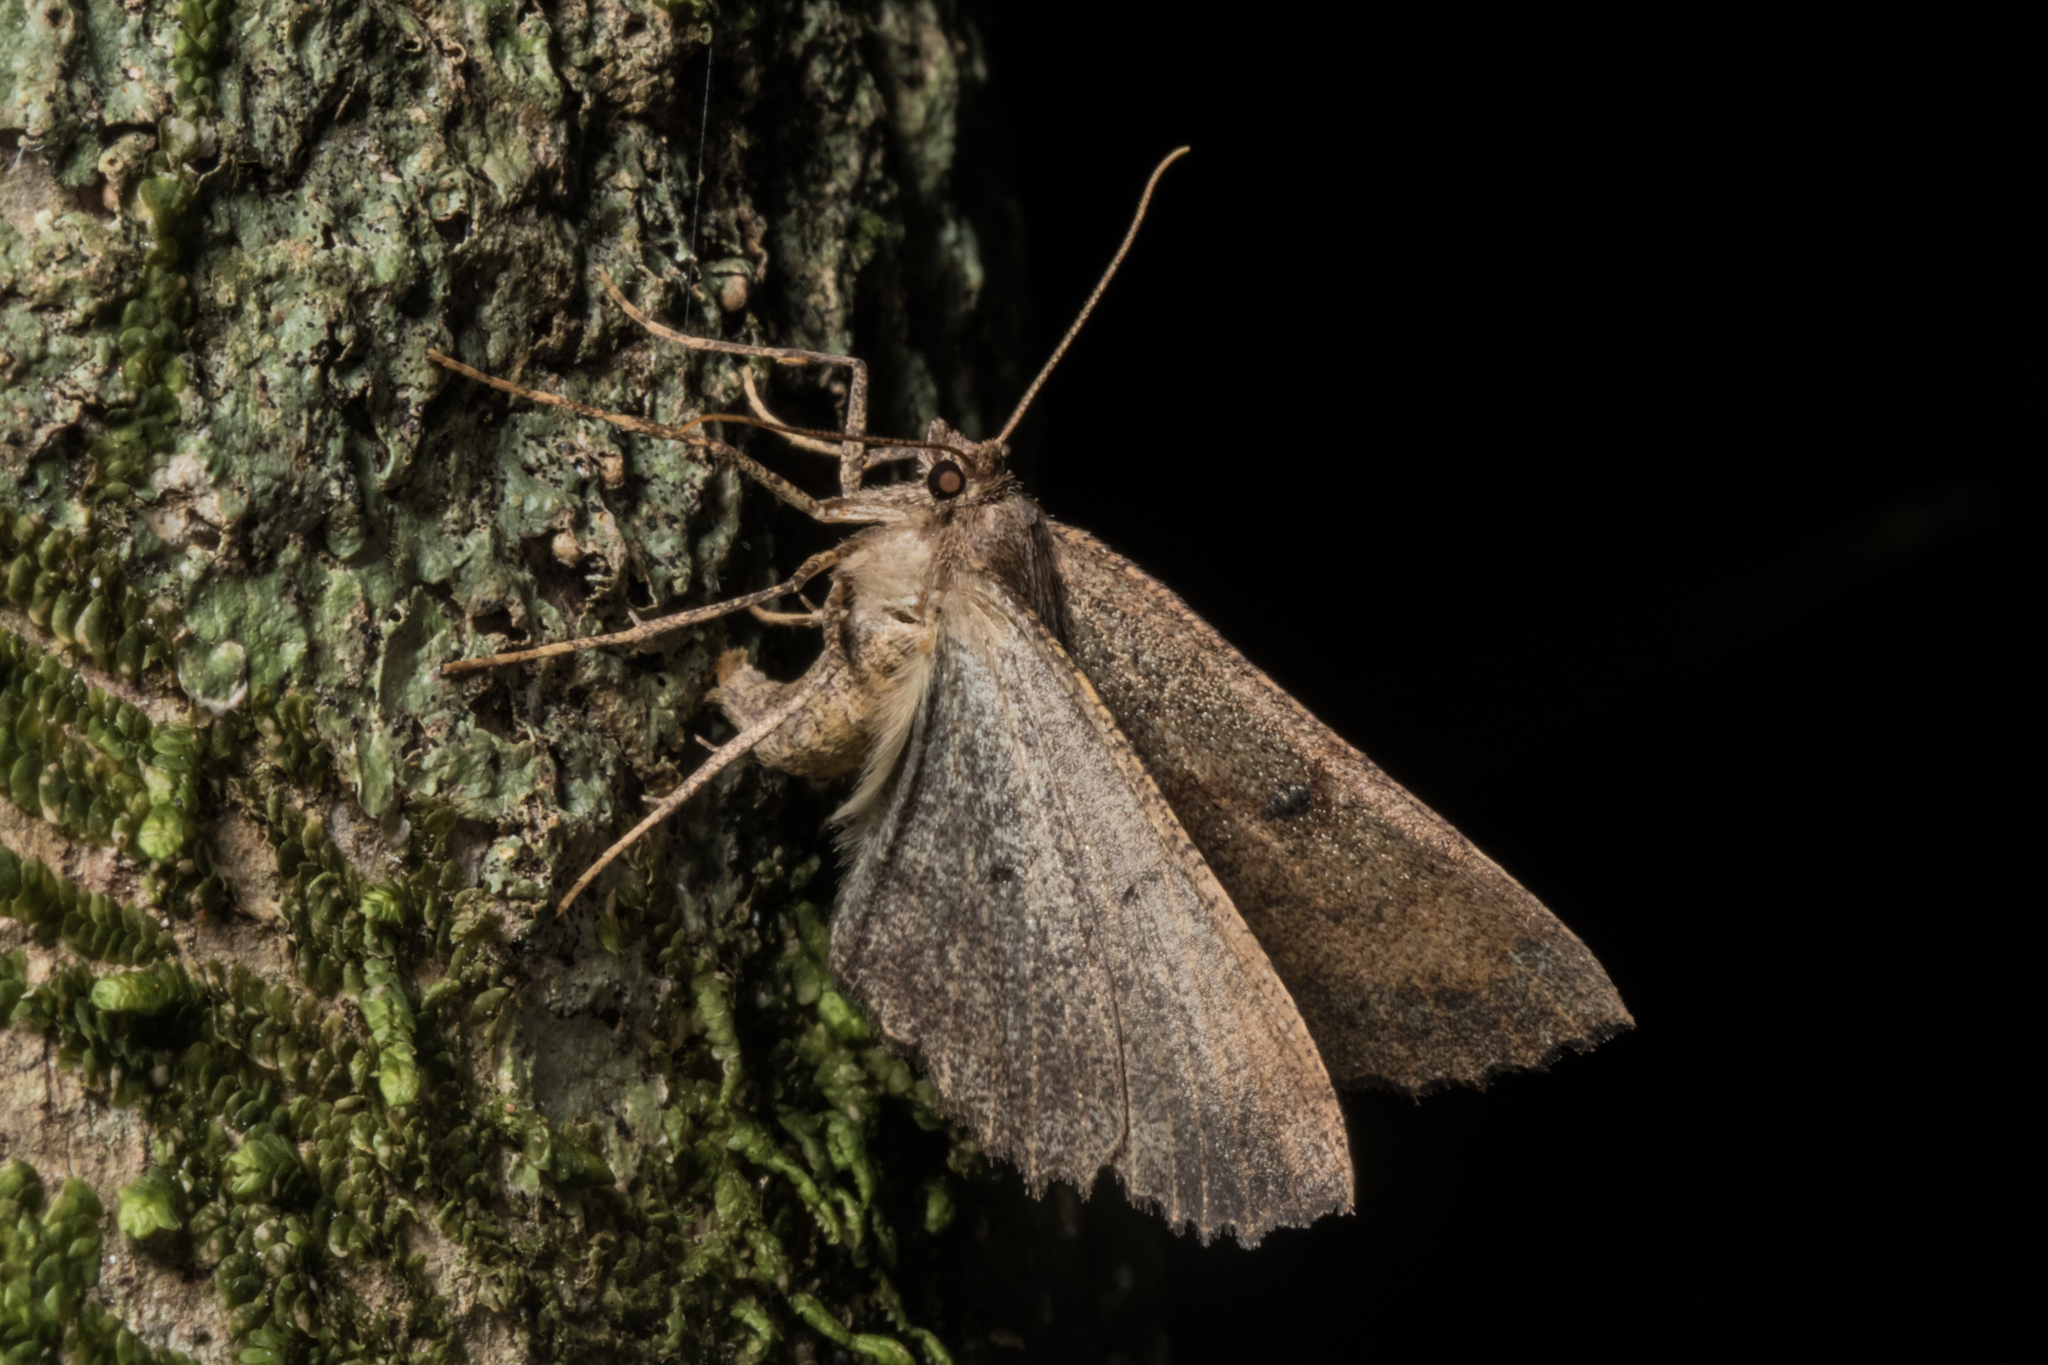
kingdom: Animalia
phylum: Arthropoda
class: Insecta
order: Lepidoptera
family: Geometridae
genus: Cleora
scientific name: Cleora scriptaria
